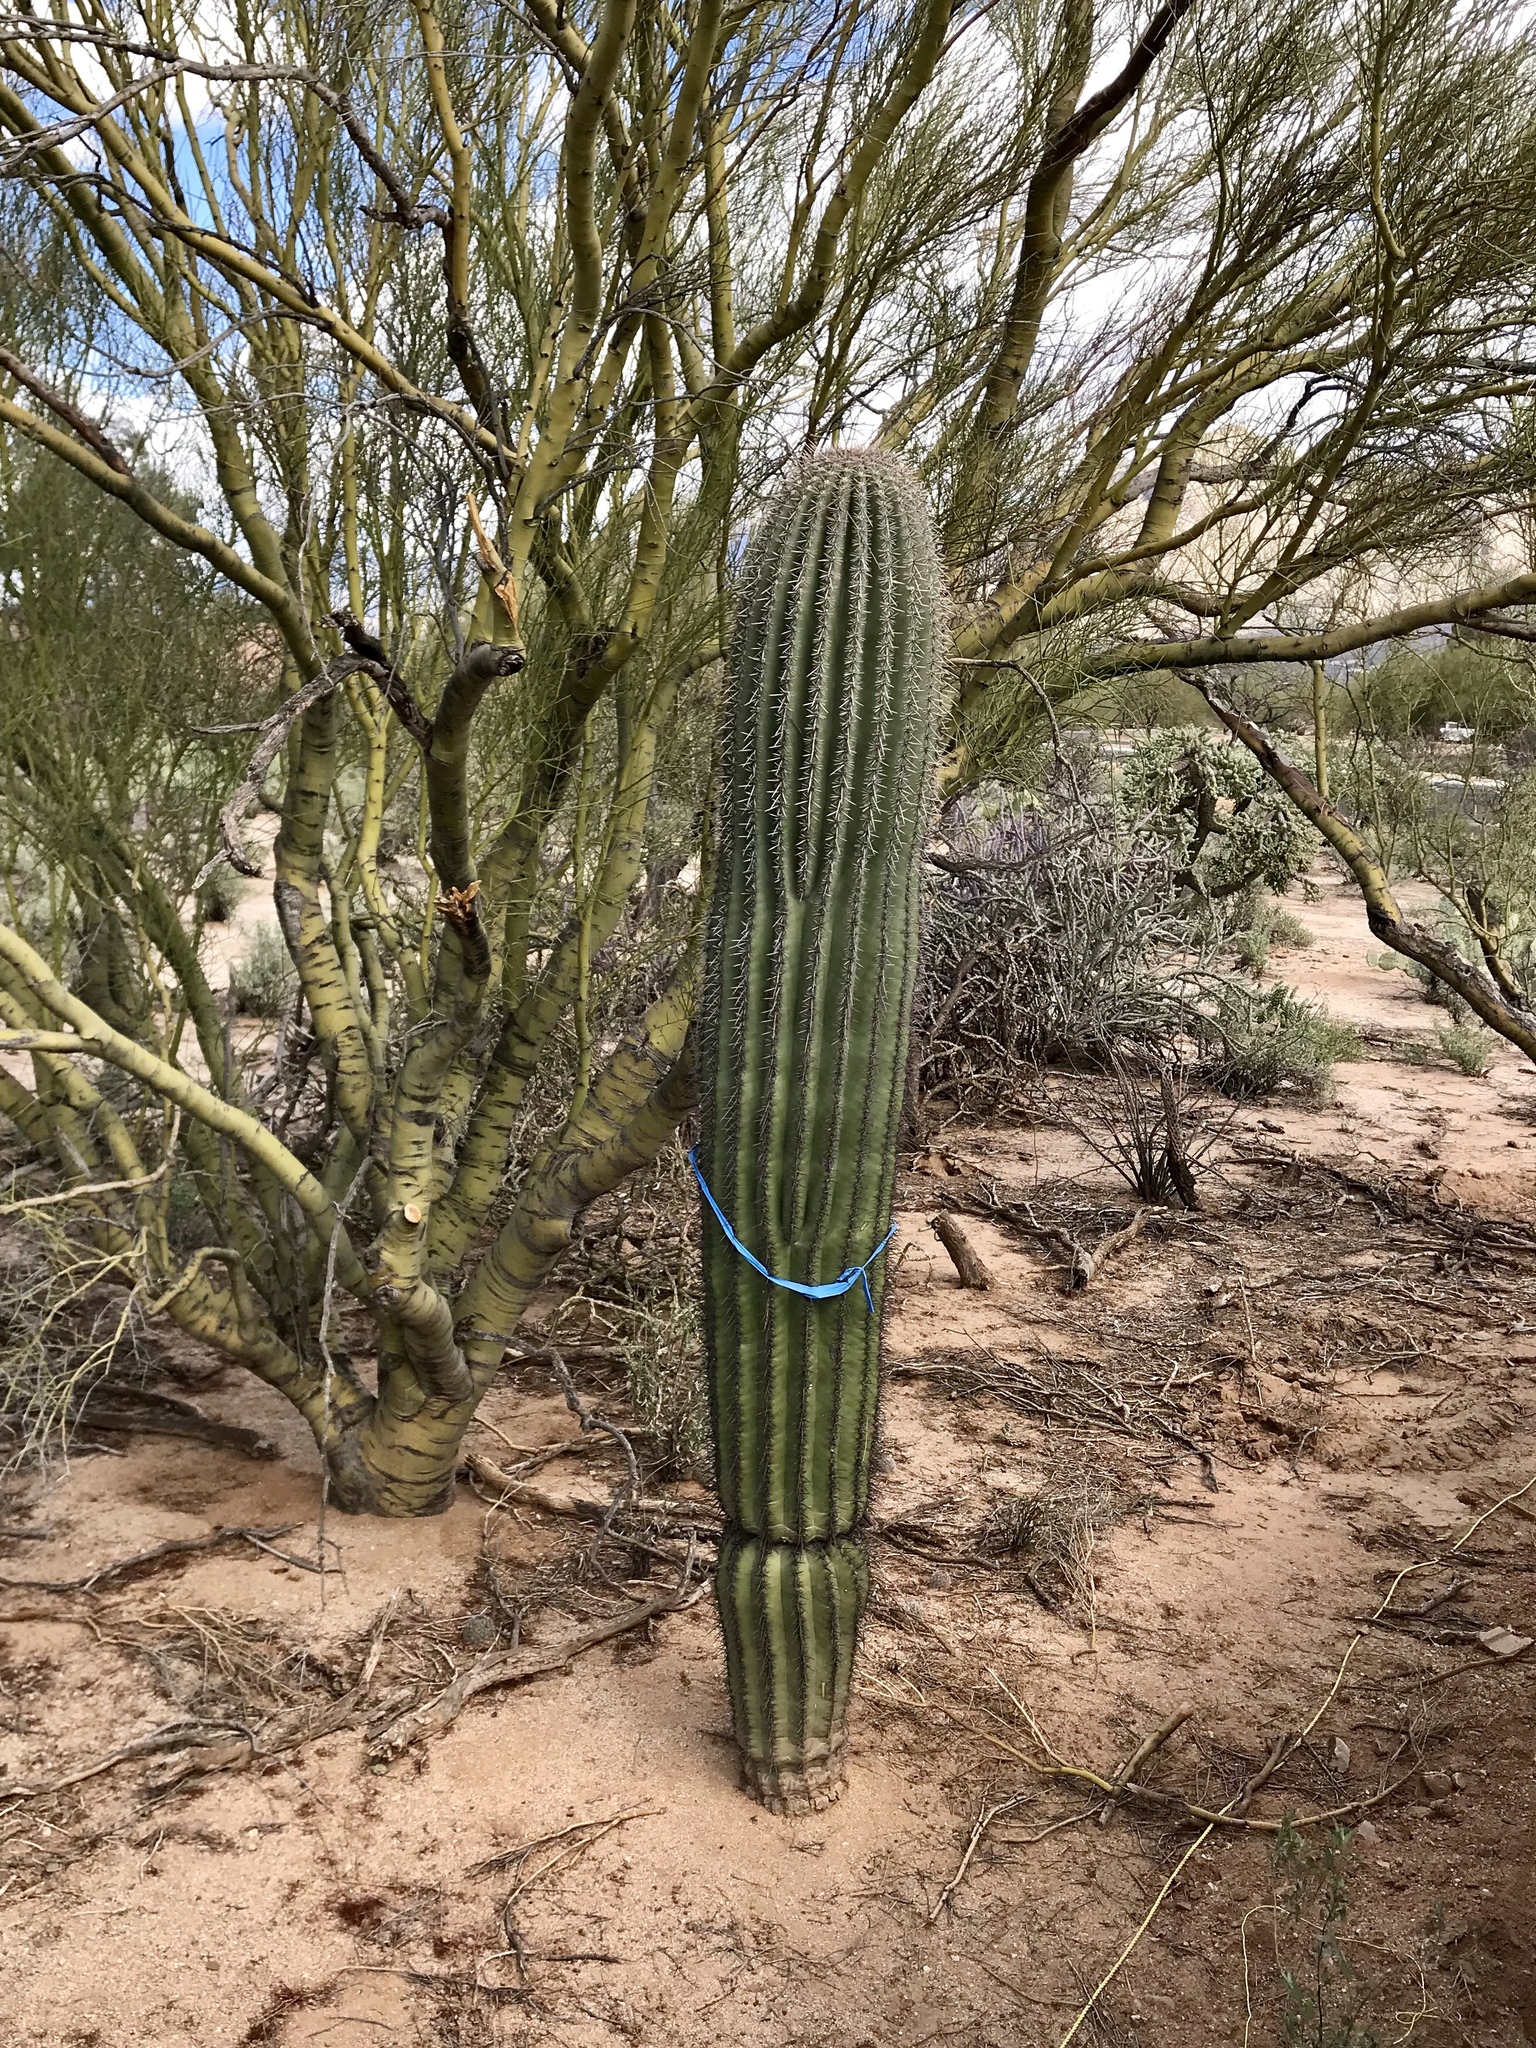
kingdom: Plantae
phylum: Tracheophyta
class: Magnoliopsida
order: Caryophyllales
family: Cactaceae
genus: Carnegiea
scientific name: Carnegiea gigantea
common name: Saguaro
